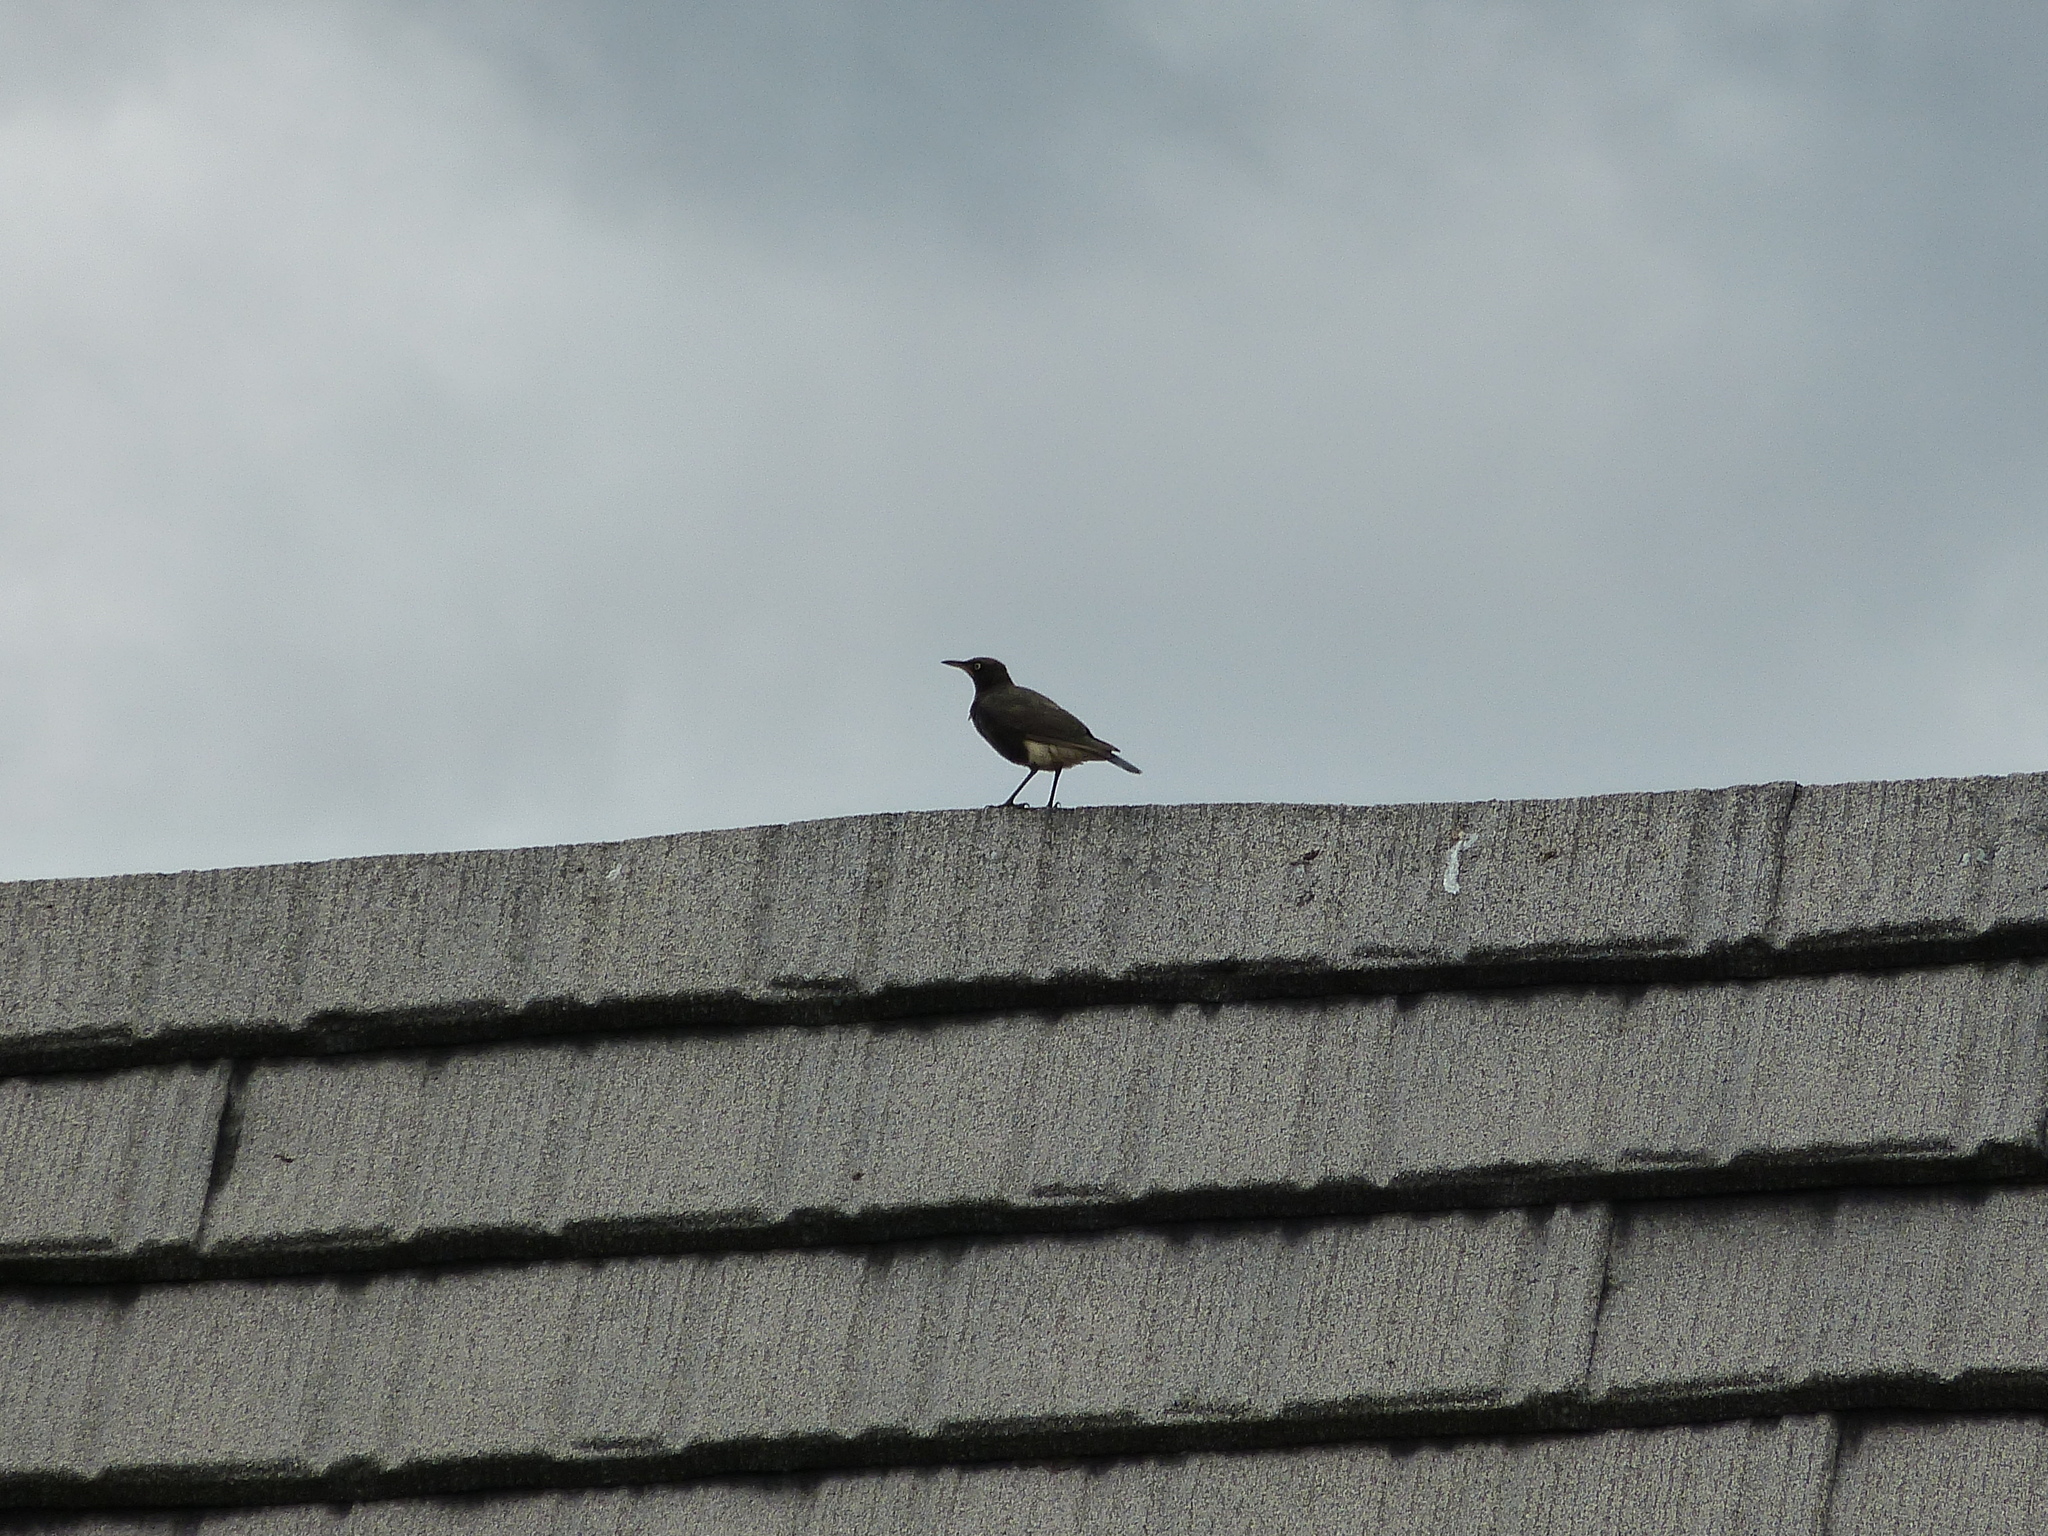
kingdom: Animalia
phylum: Chordata
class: Aves
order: Passeriformes
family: Sturnidae
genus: Lamprotornis
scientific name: Lamprotornis bicolor
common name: Pied starling
